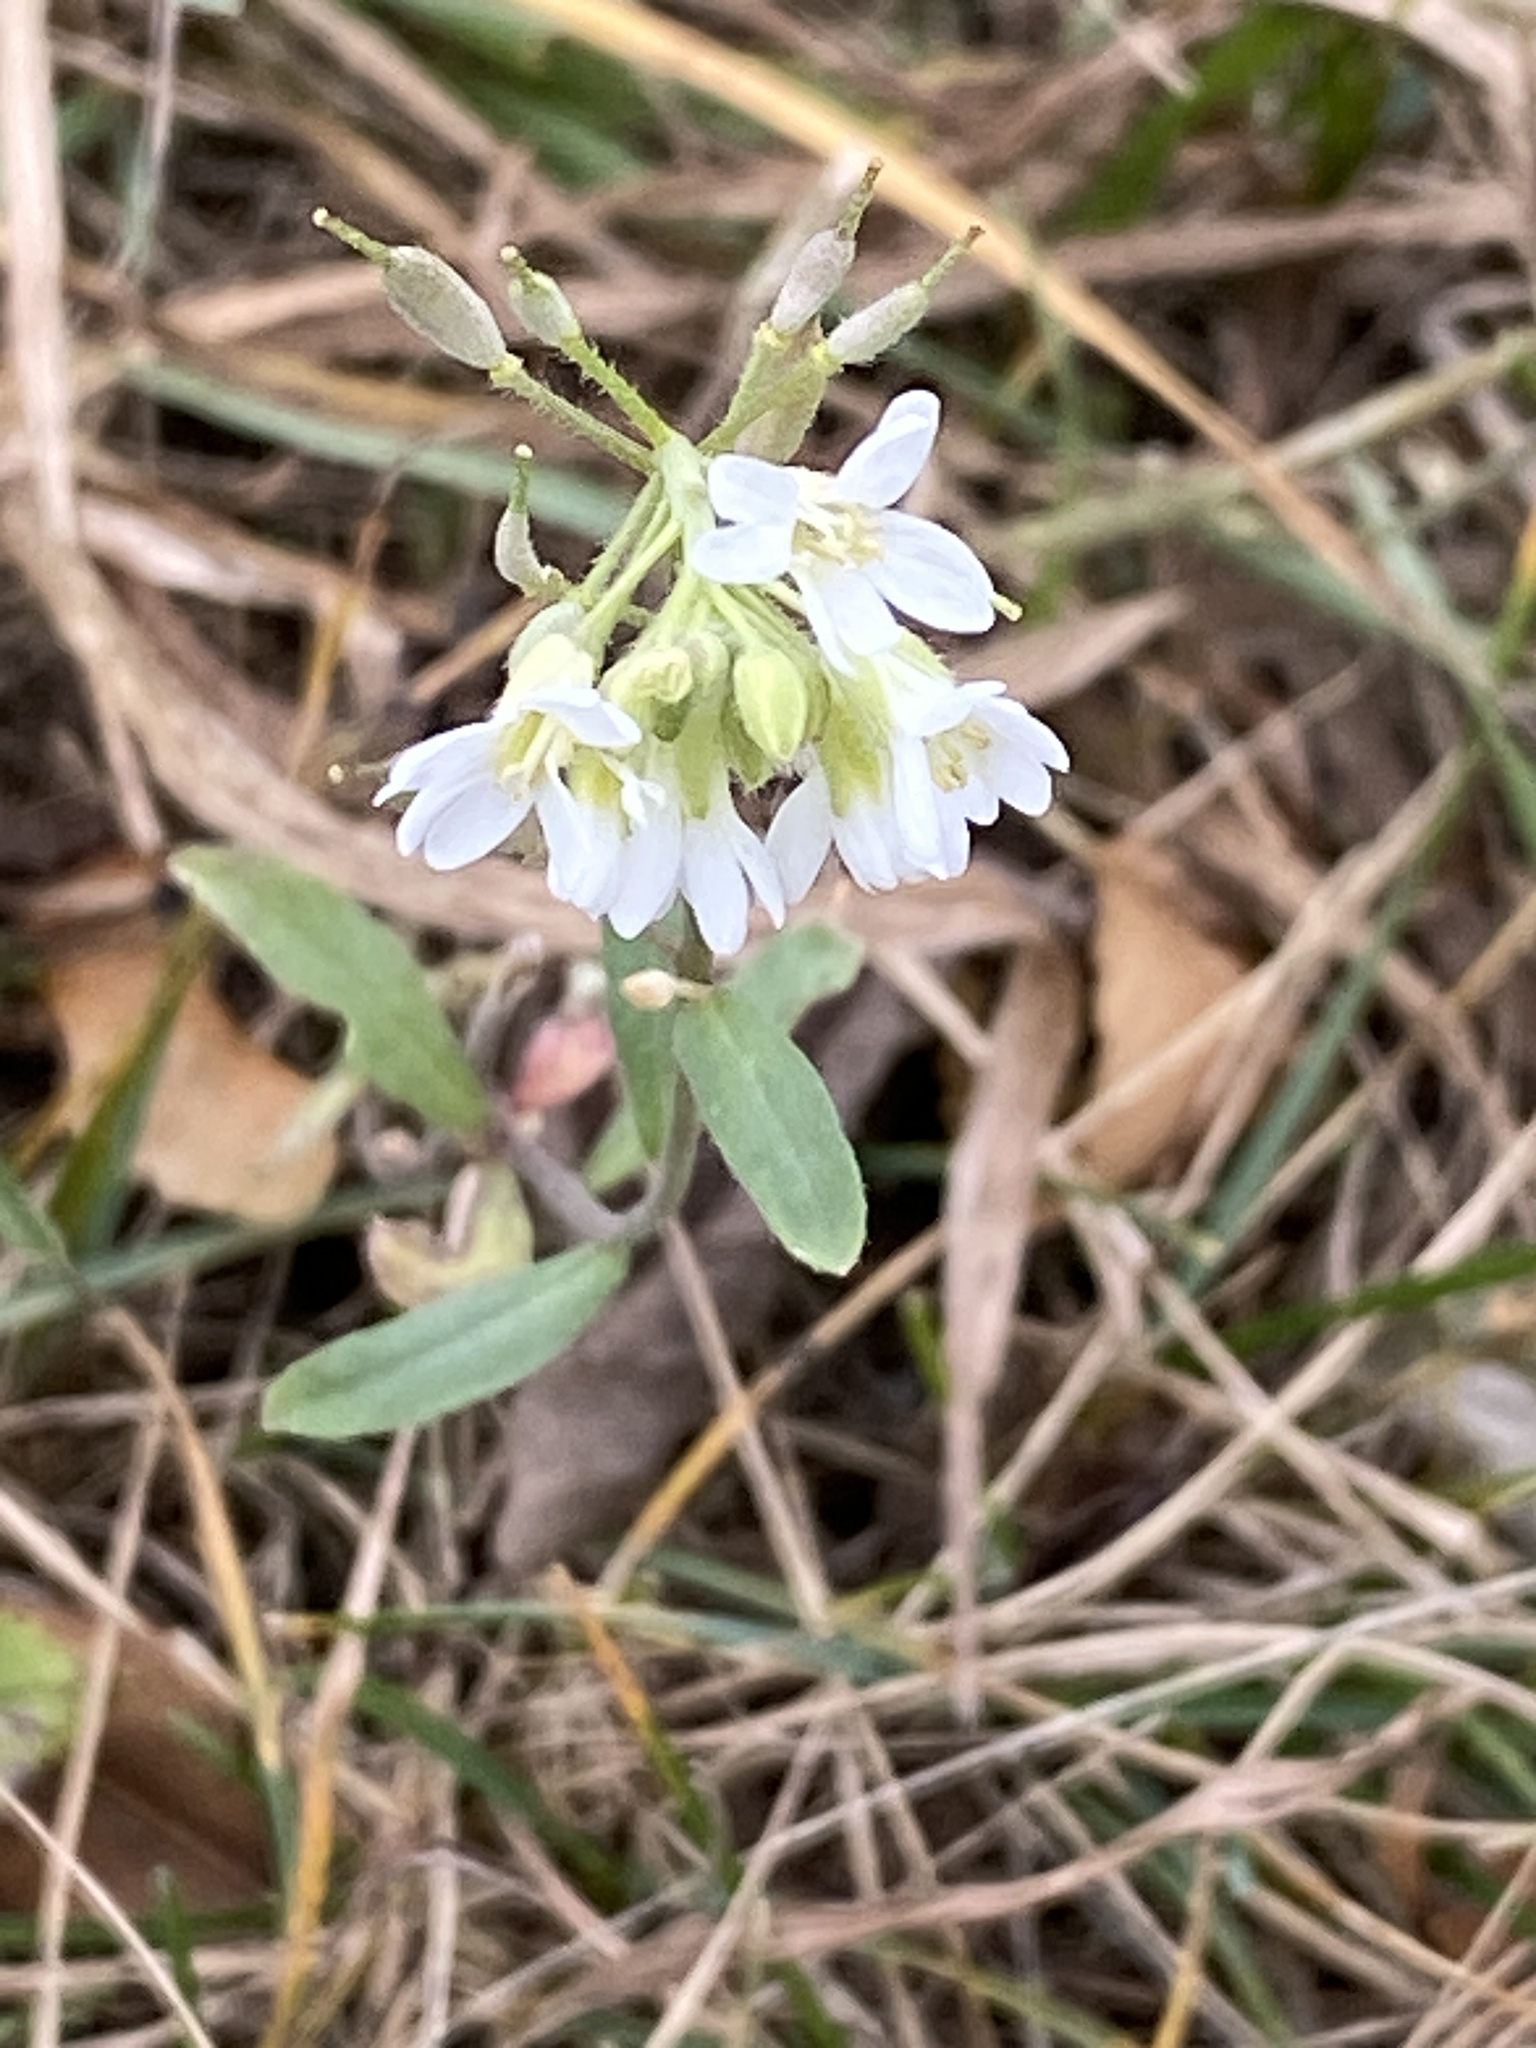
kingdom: Plantae
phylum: Tracheophyta
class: Magnoliopsida
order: Brassicales
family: Brassicaceae
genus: Berteroa
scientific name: Berteroa incana
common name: Hoary alison
